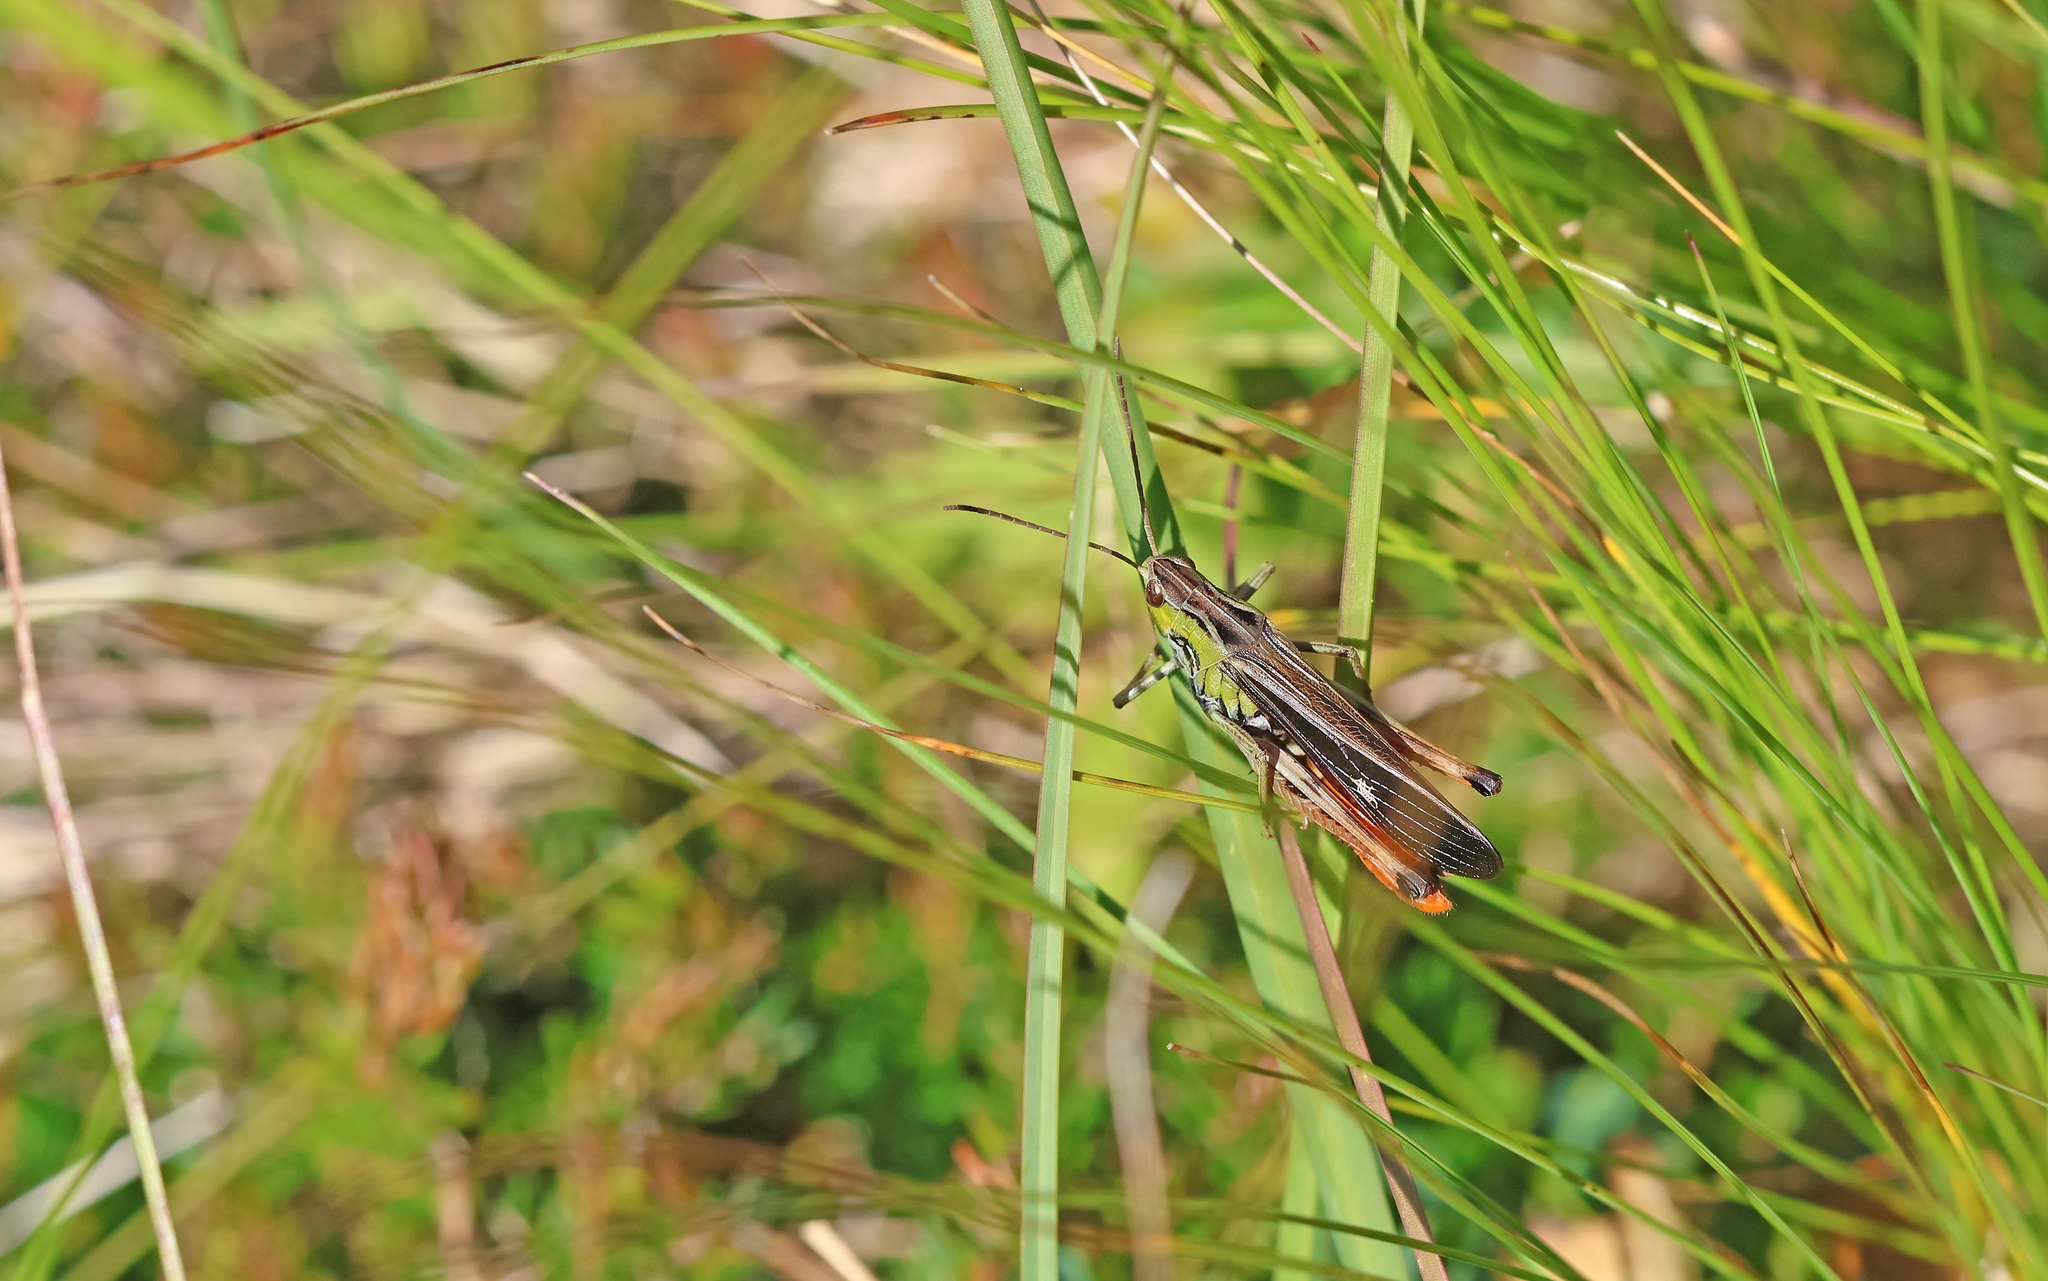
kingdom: Animalia
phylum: Arthropoda
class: Insecta
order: Orthoptera
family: Acrididae
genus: Stenobothrus
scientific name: Stenobothrus rubicundulus
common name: Wing-buzzing grasshopper
